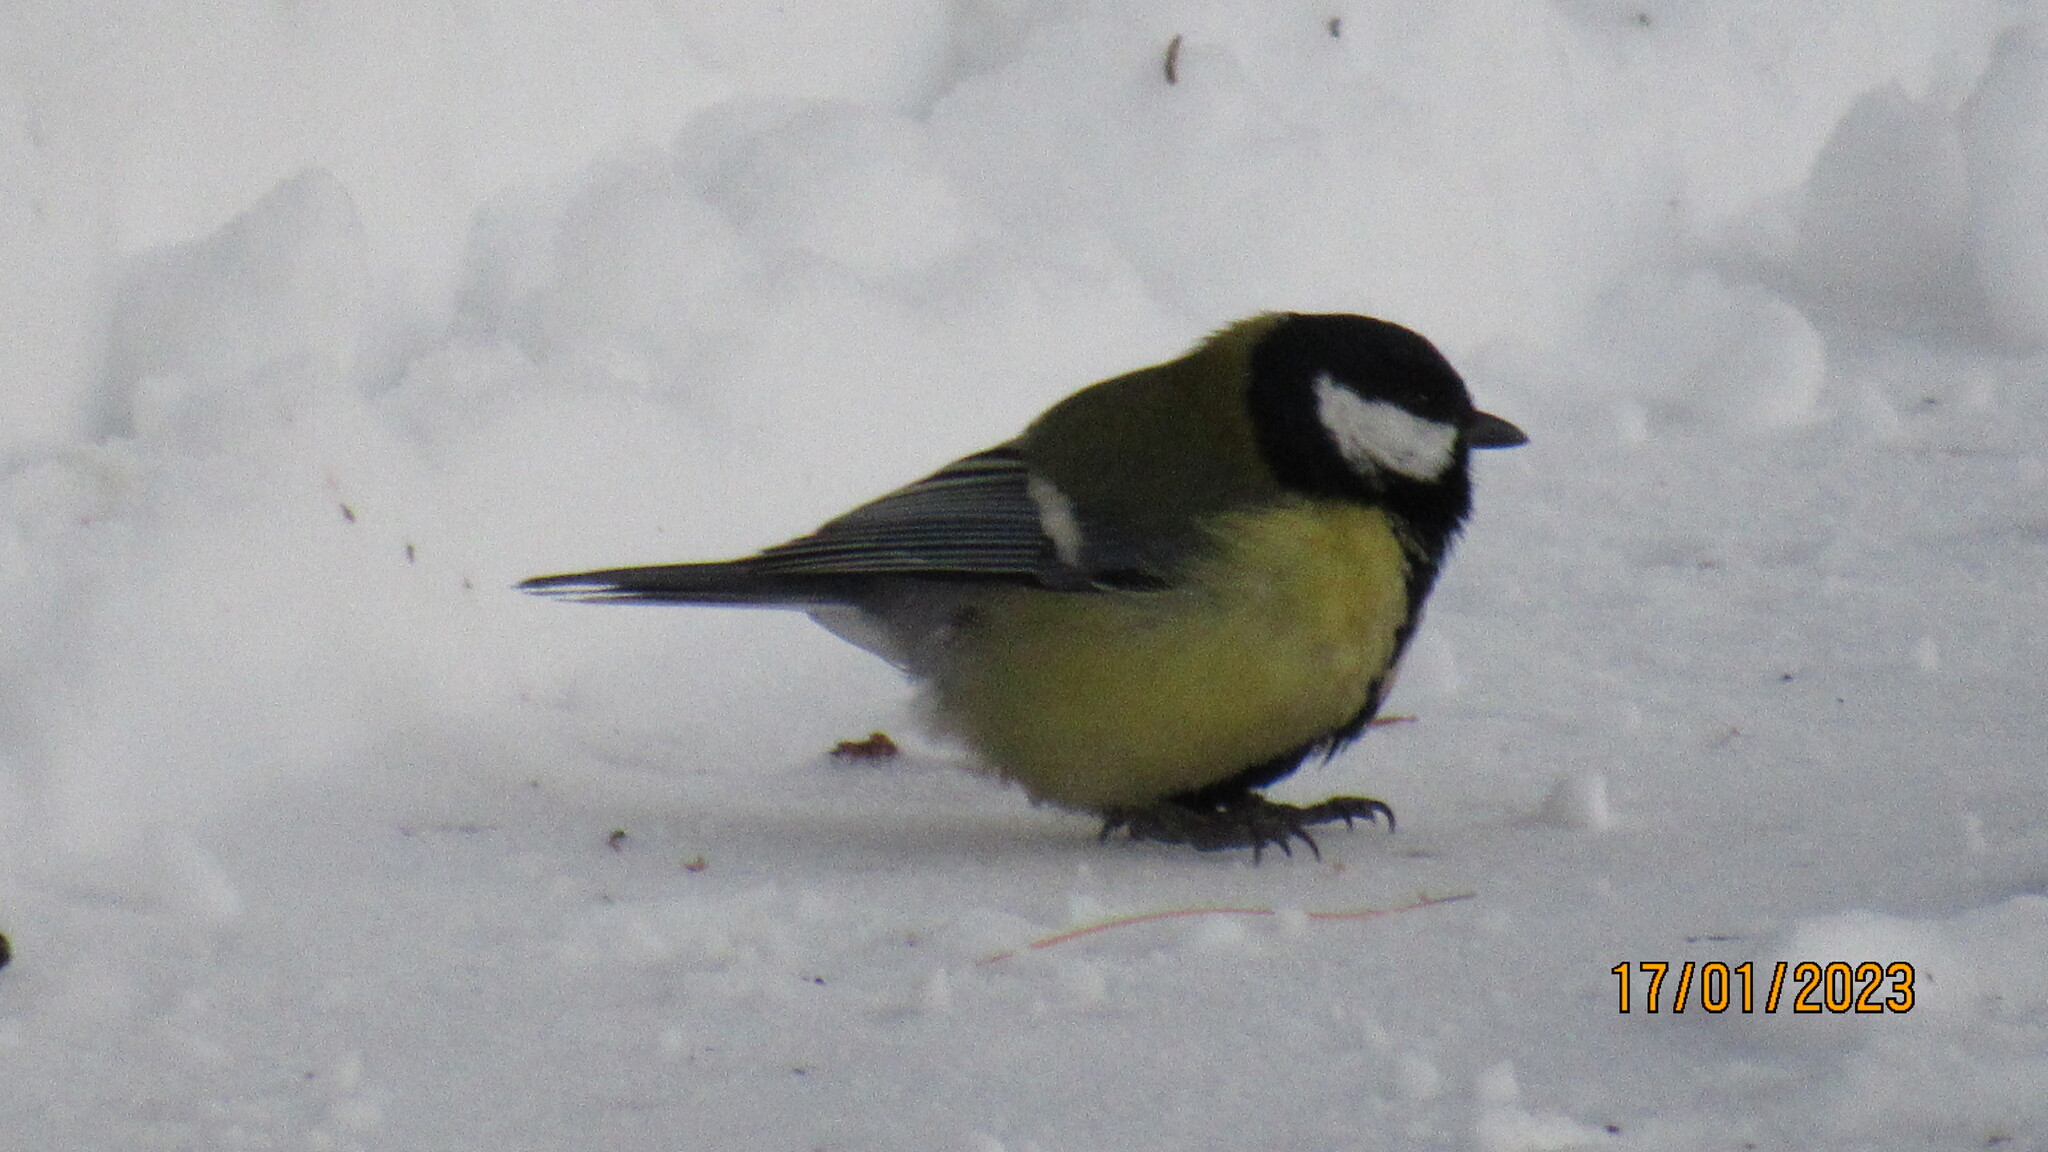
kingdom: Animalia
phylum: Chordata
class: Aves
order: Passeriformes
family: Paridae
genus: Parus
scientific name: Parus major
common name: Great tit
